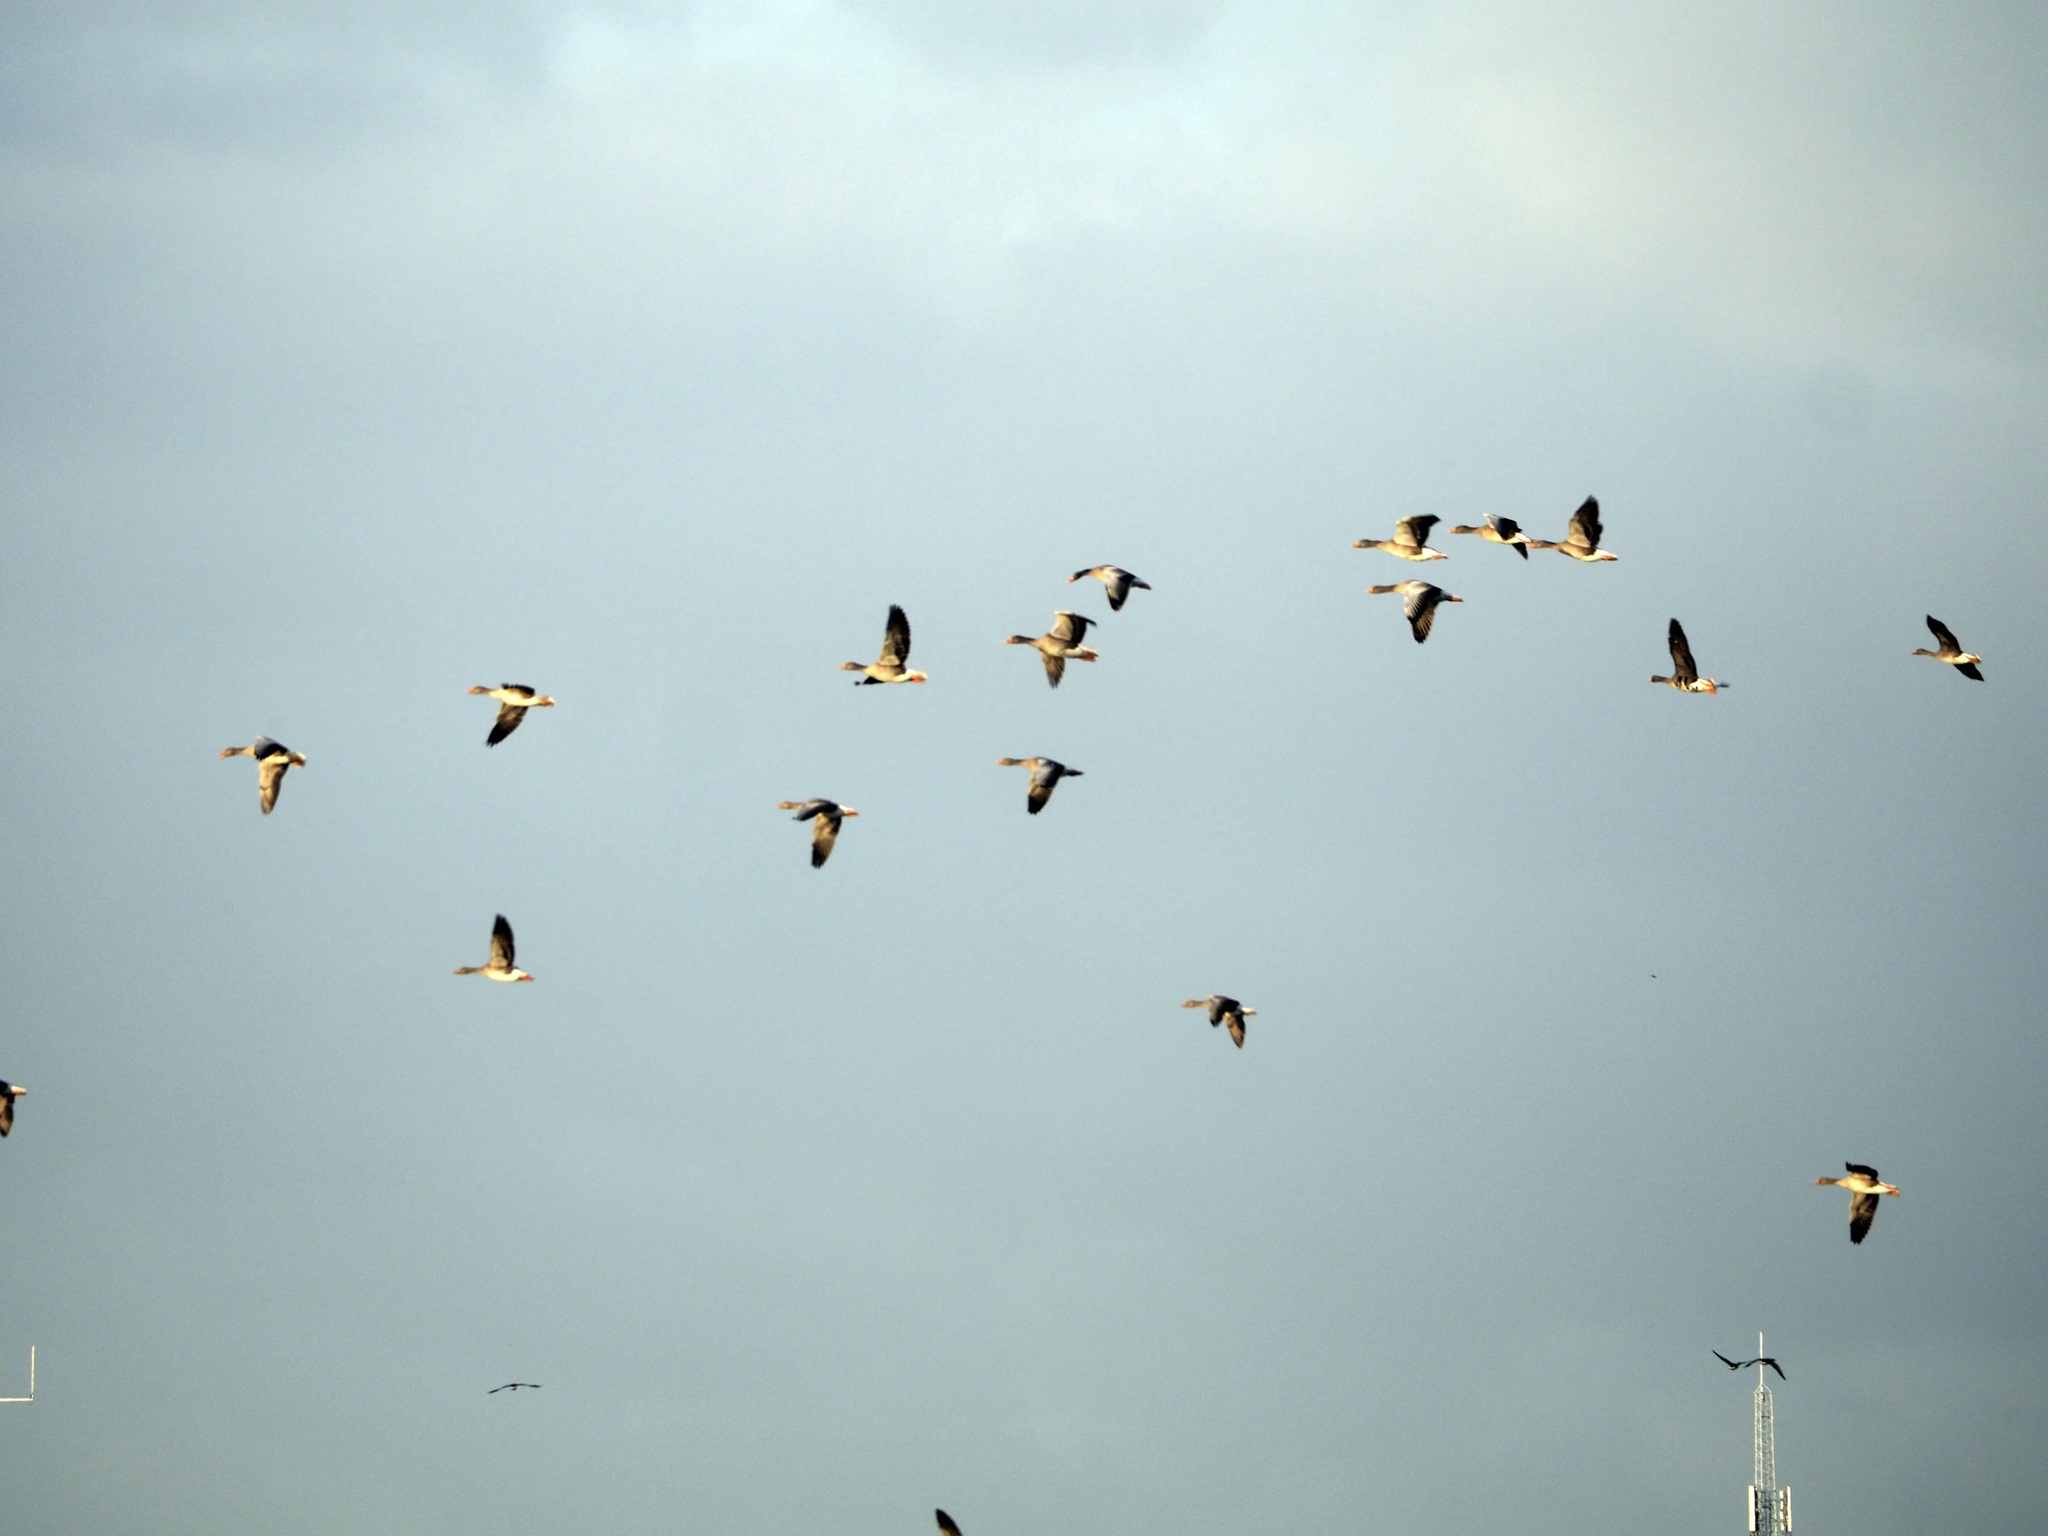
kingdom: Animalia
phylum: Chordata
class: Aves
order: Anseriformes
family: Anatidae
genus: Anser
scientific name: Anser anser
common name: Greylag goose
